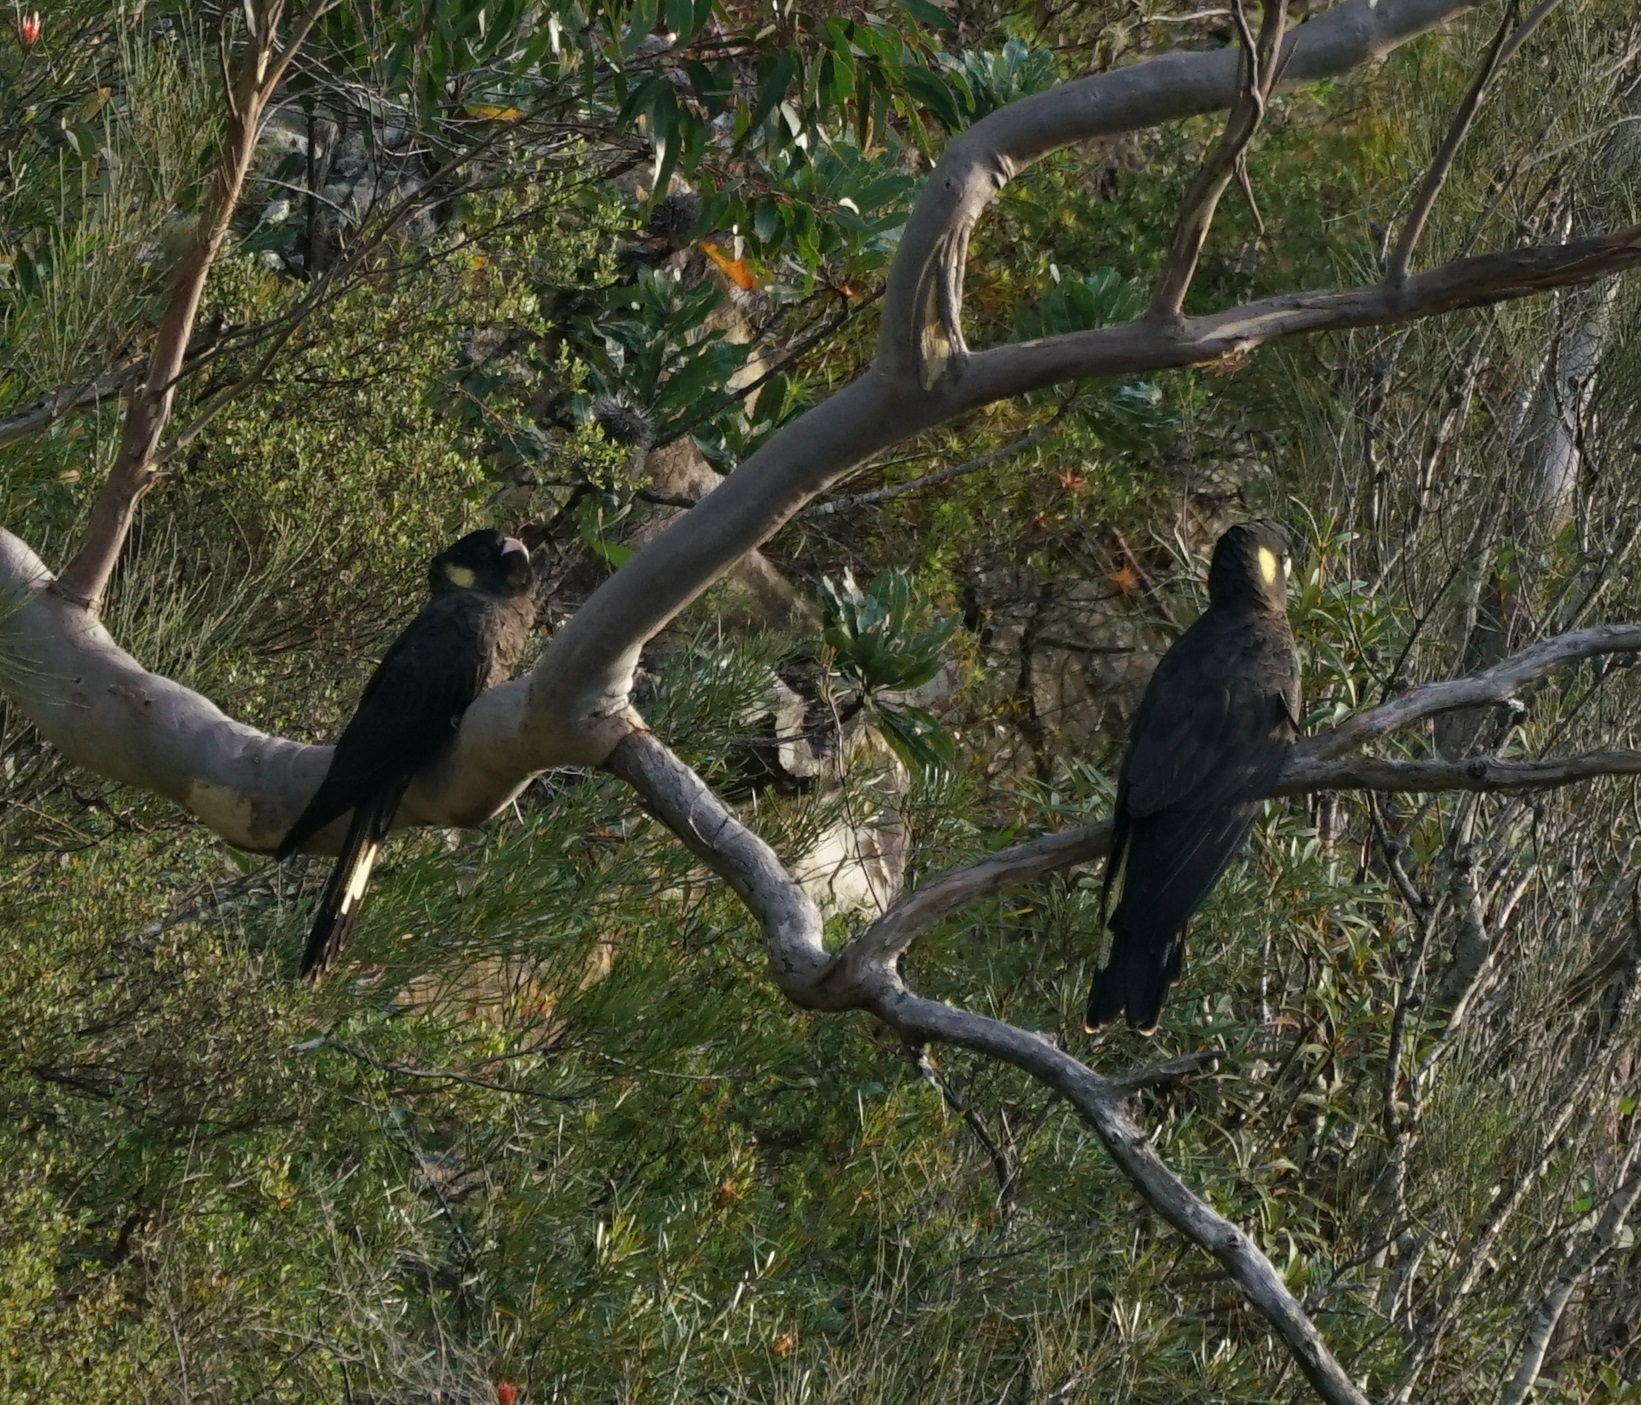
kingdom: Animalia
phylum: Chordata
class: Aves
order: Psittaciformes
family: Cacatuidae
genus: Zanda
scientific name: Zanda funerea
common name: Yellow-tailed black-cockatoo
